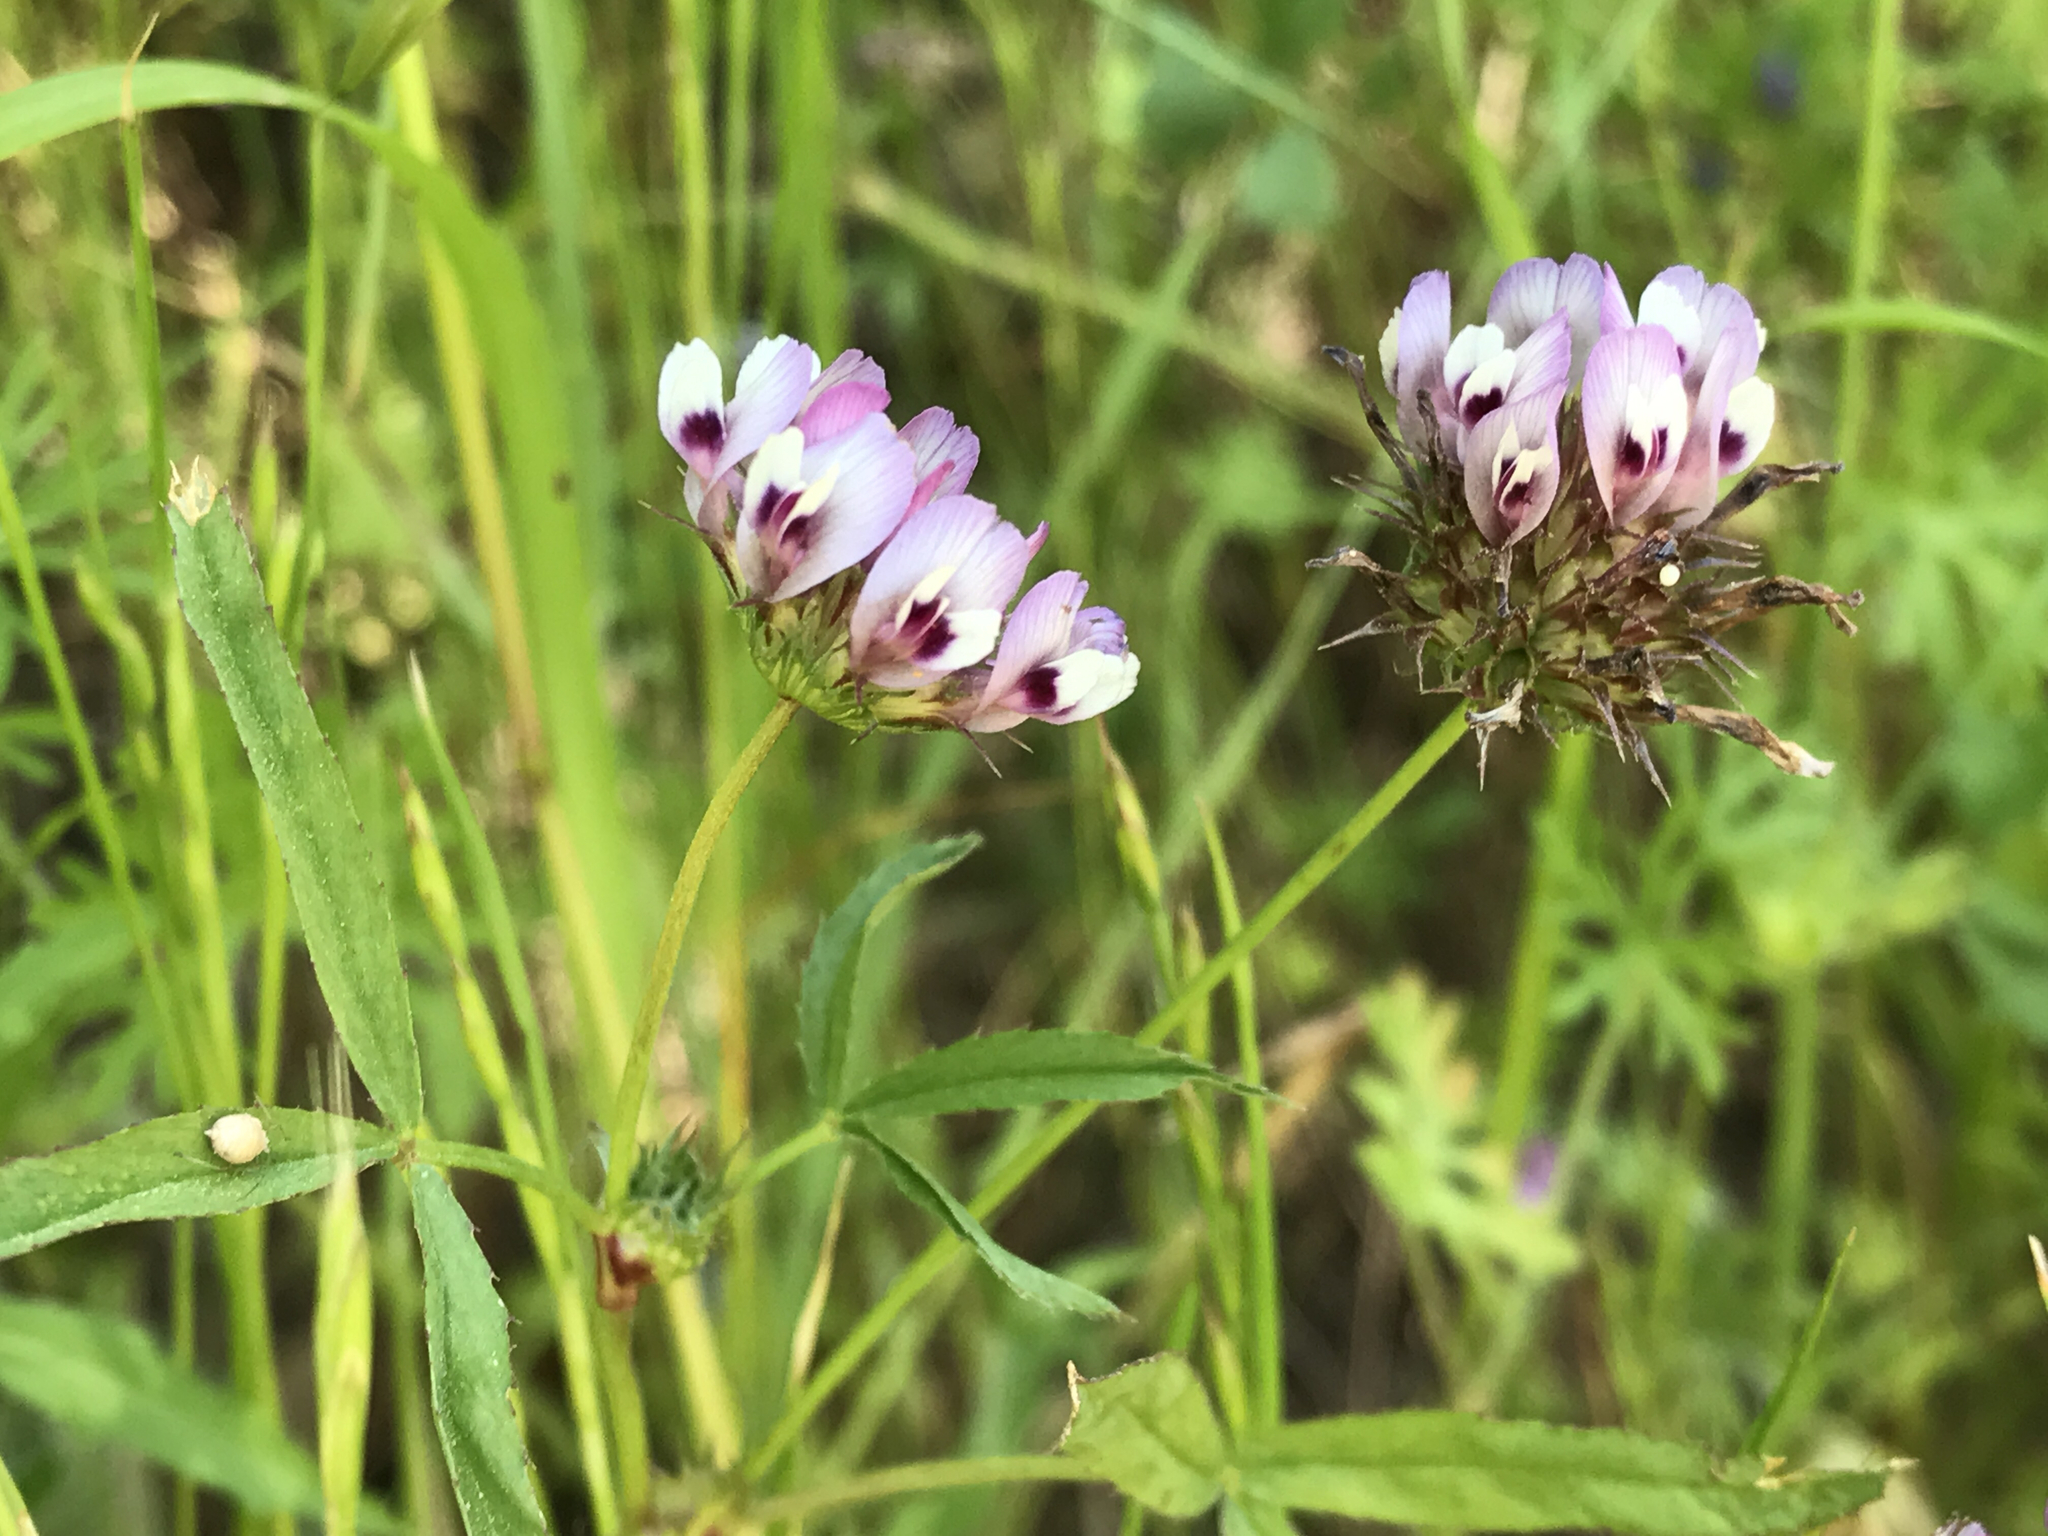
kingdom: Plantae
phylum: Tracheophyta
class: Magnoliopsida
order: Fabales
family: Fabaceae
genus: Trifolium
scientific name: Trifolium willdenovii
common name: Tomcat clover
